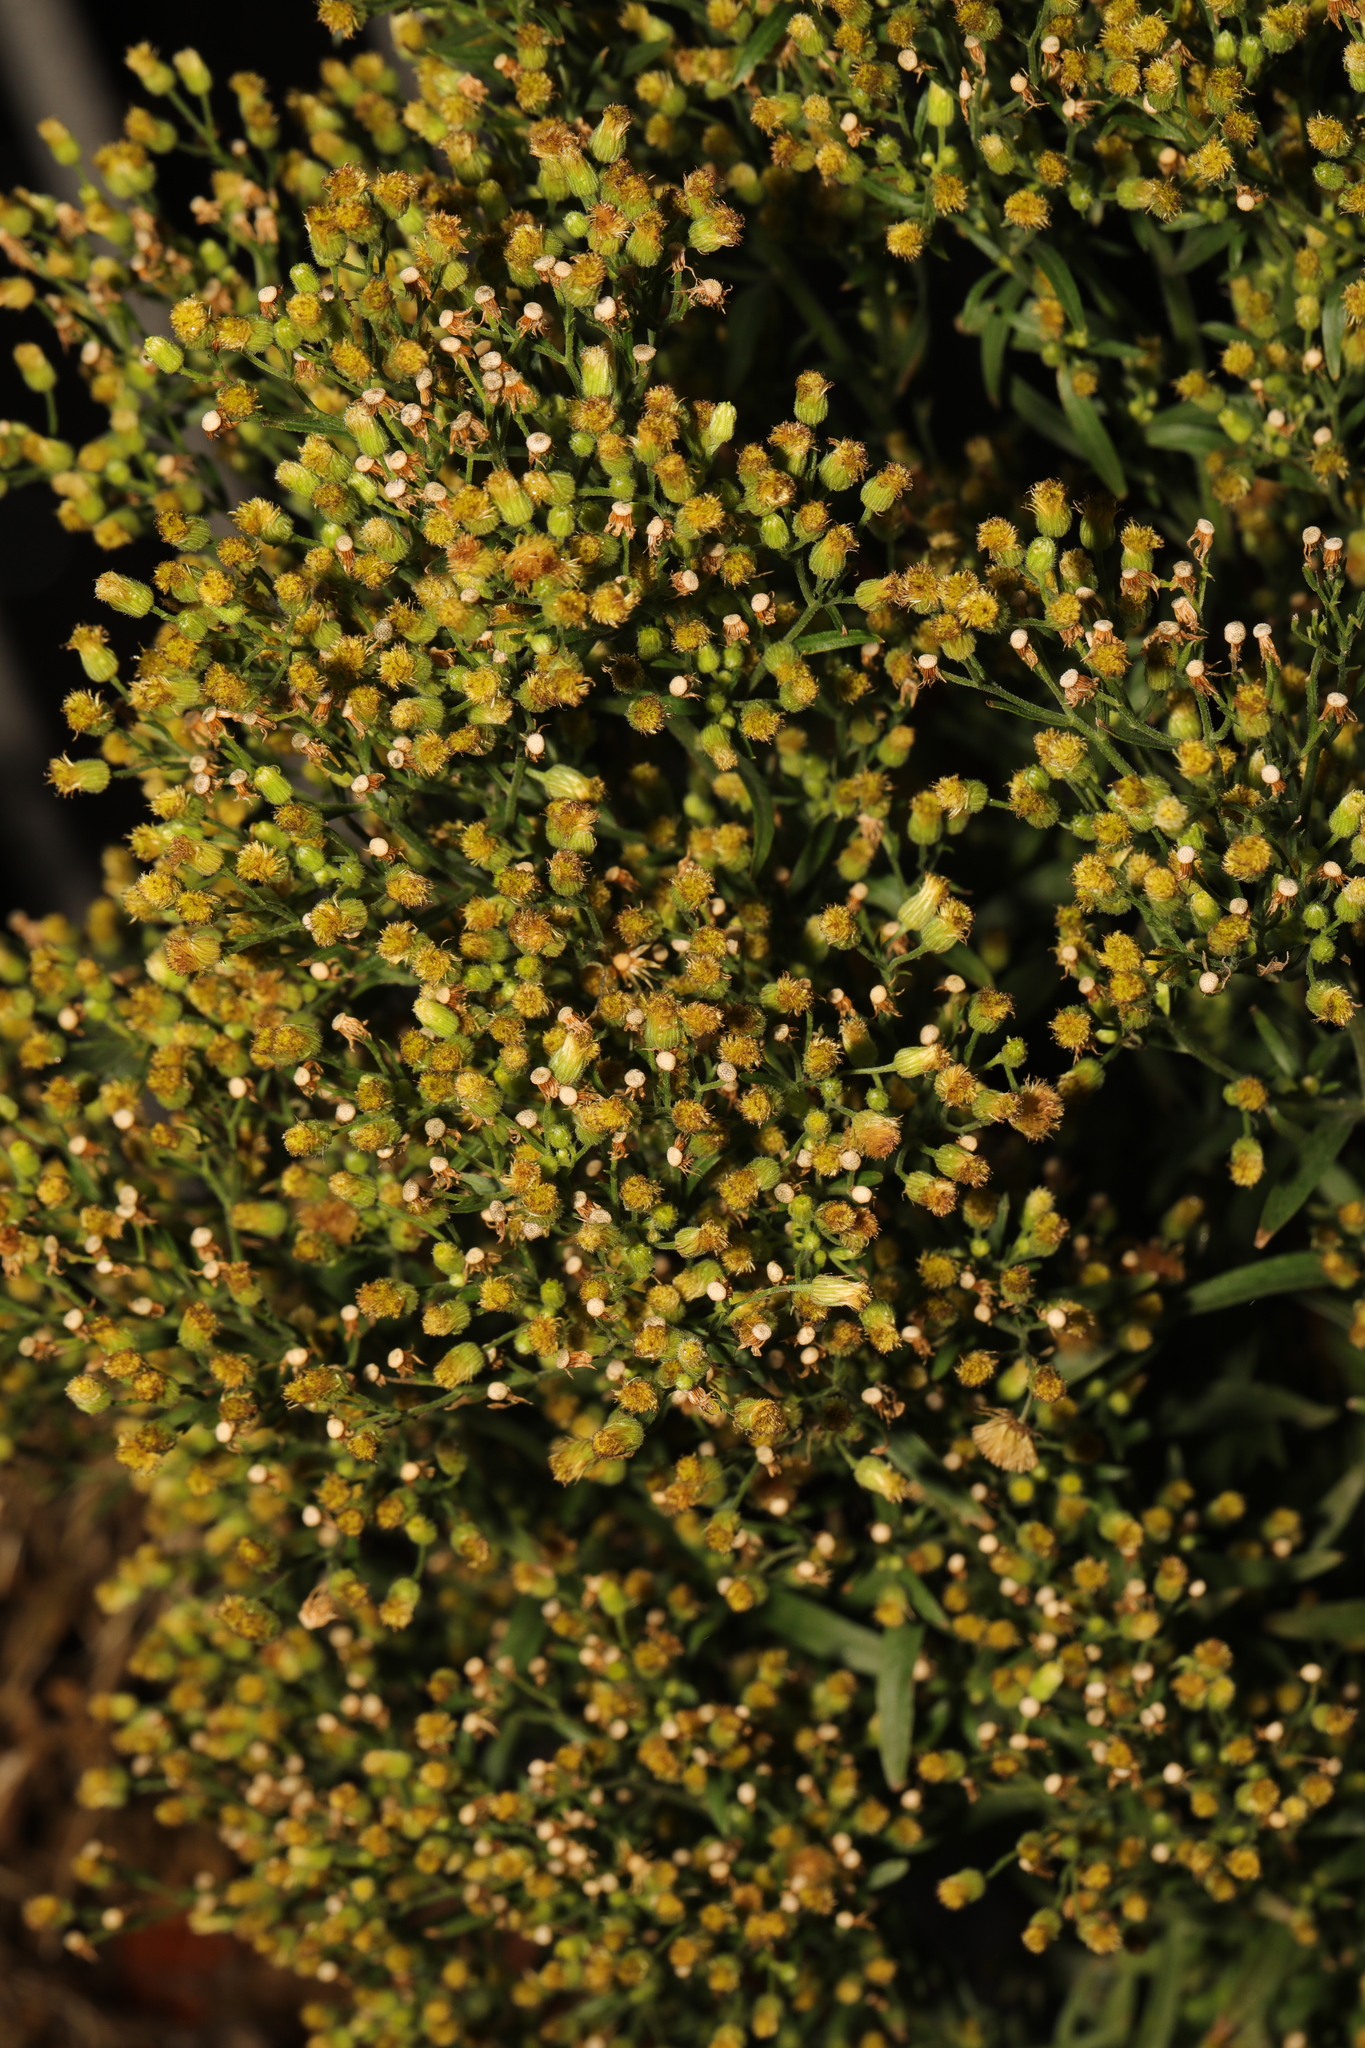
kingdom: Plantae
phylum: Tracheophyta
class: Magnoliopsida
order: Asterales
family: Asteraceae
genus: Erigeron
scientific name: Erigeron canadensis
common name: Canadian fleabane
